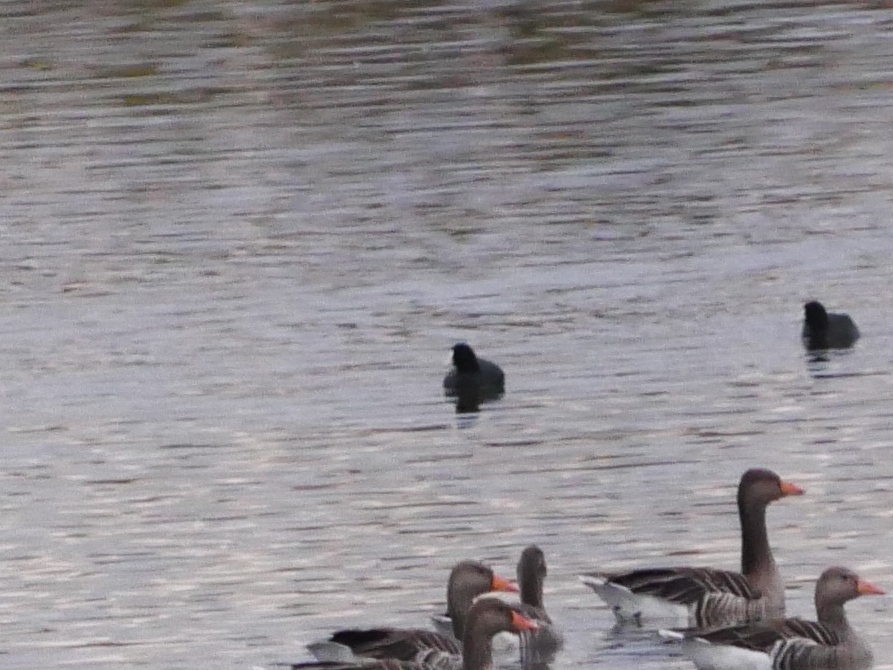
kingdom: Animalia
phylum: Chordata
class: Aves
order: Gruiformes
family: Rallidae
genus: Fulica
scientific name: Fulica atra
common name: Eurasian coot
